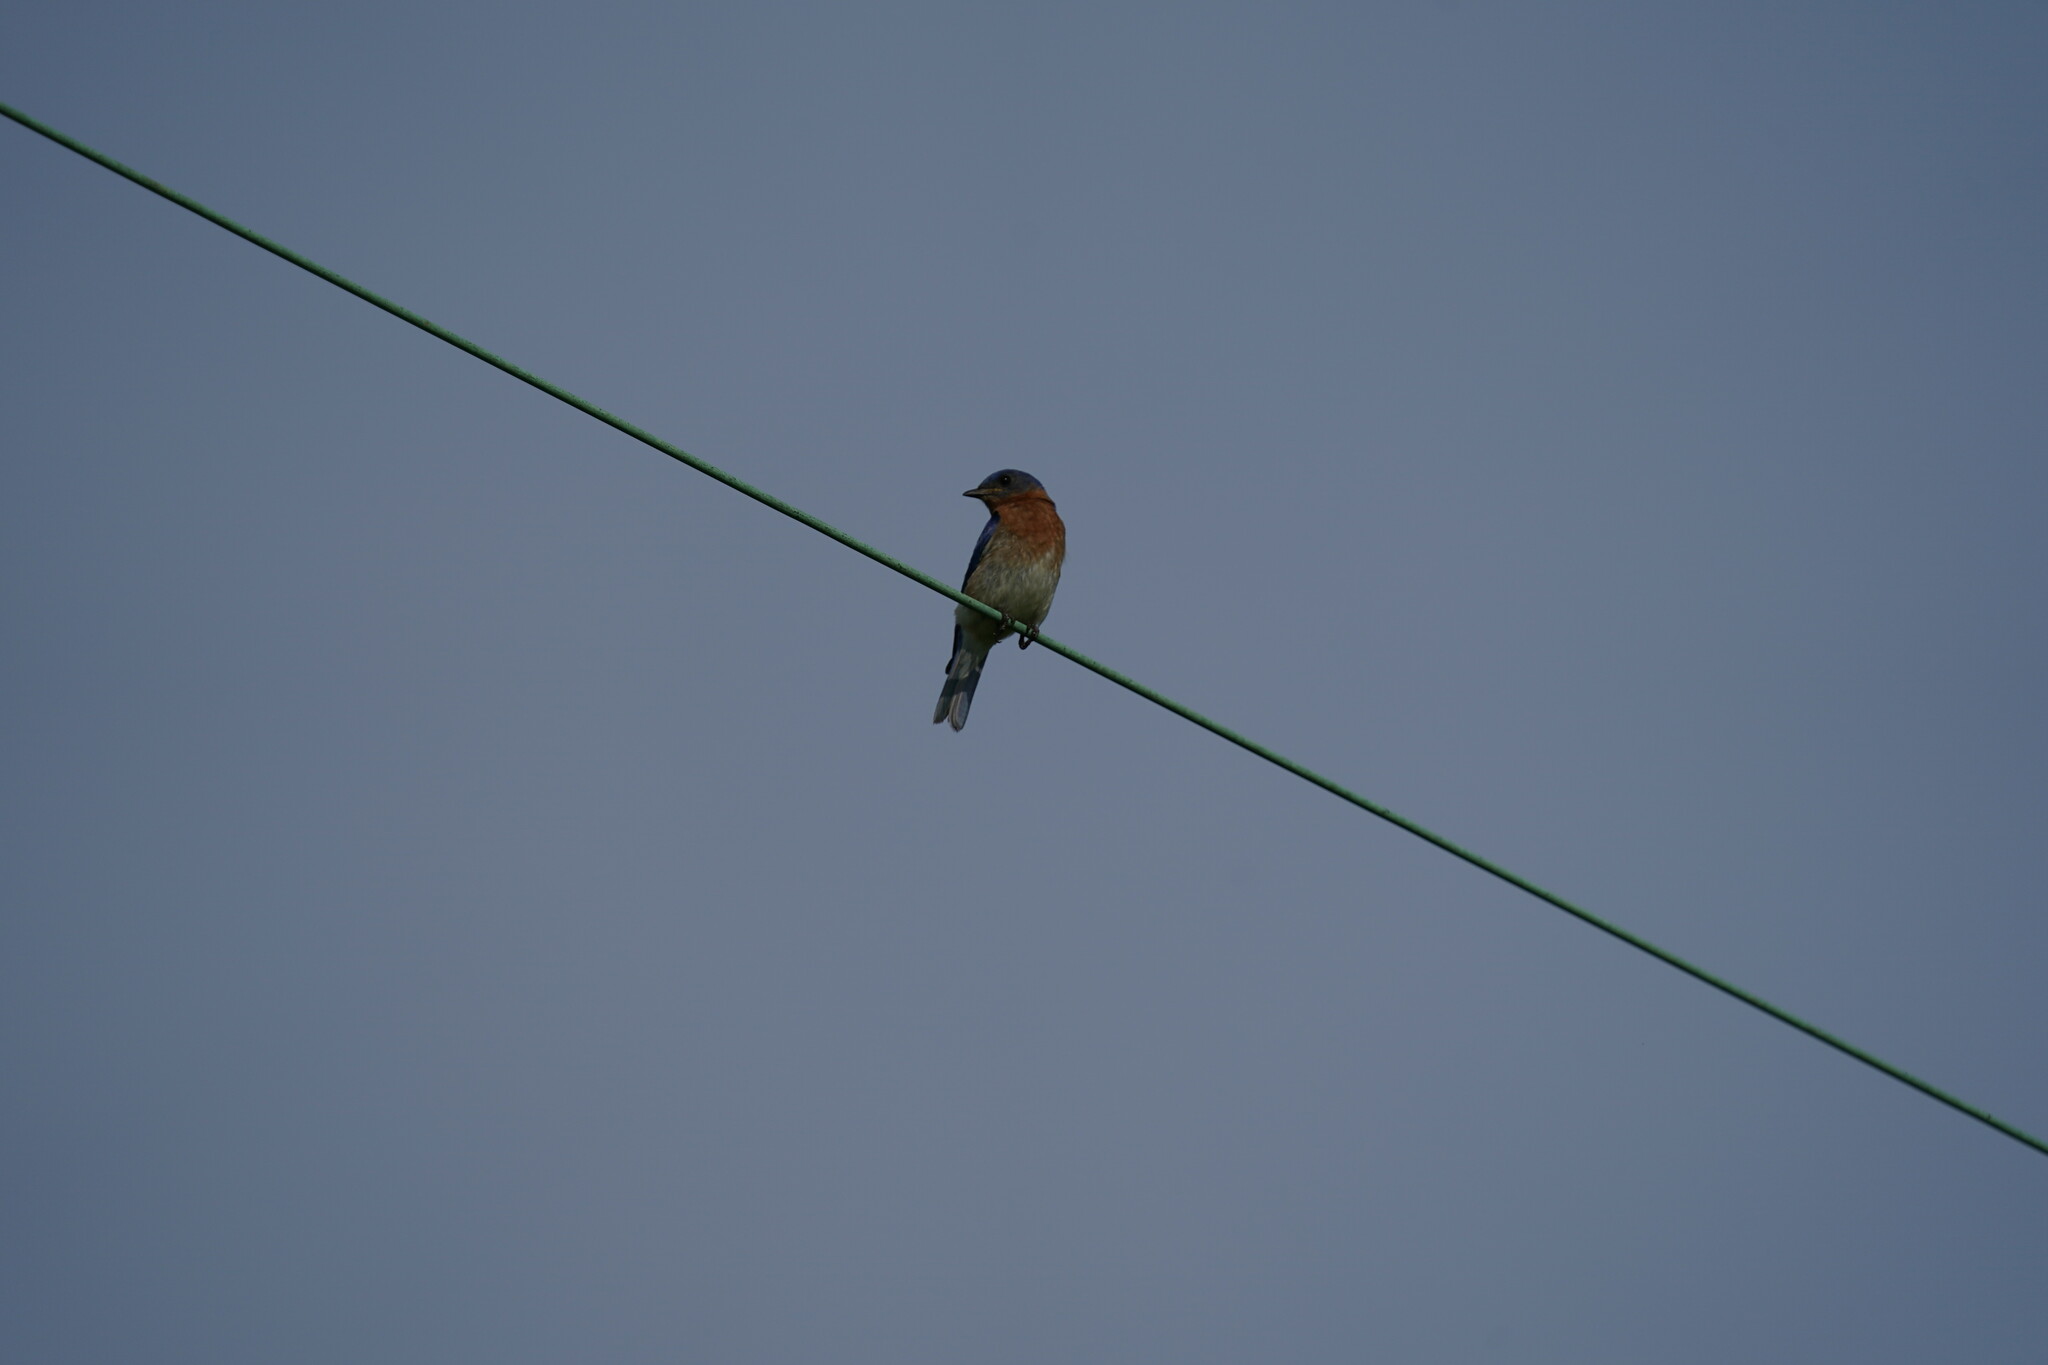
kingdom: Animalia
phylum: Chordata
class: Aves
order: Passeriformes
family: Turdidae
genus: Sialia
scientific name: Sialia sialis
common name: Eastern bluebird
